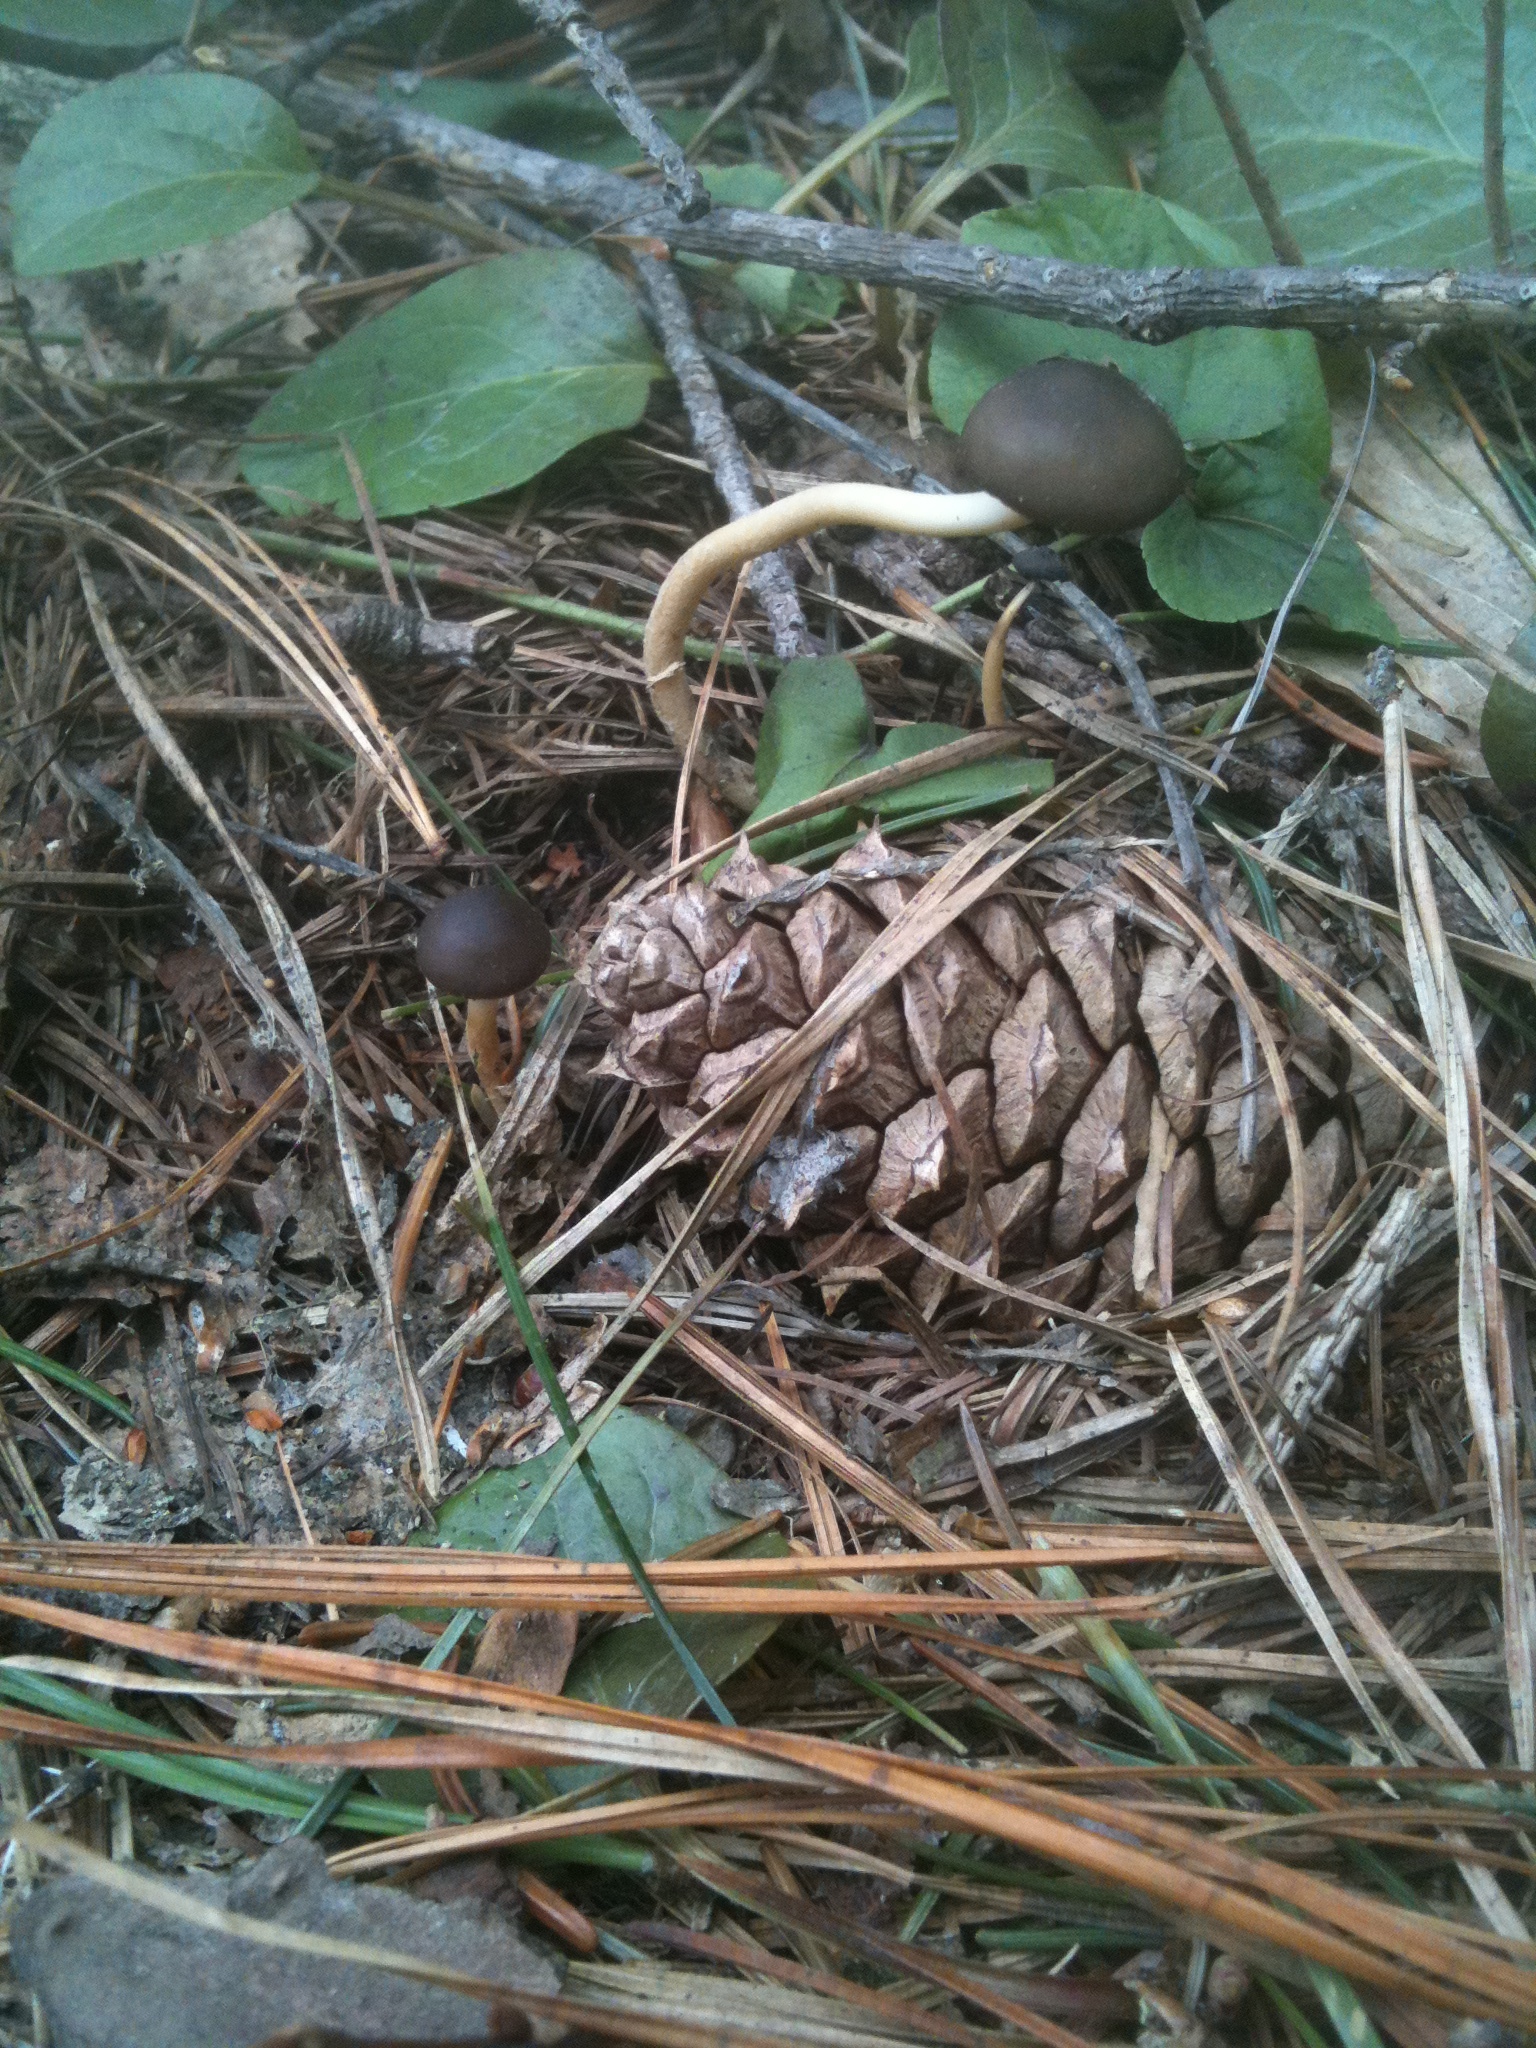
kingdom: Fungi
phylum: Basidiomycota
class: Agaricomycetes
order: Agaricales
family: Physalacriaceae
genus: Strobilurus
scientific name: Strobilurus stephanocystis
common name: Russian conecap
